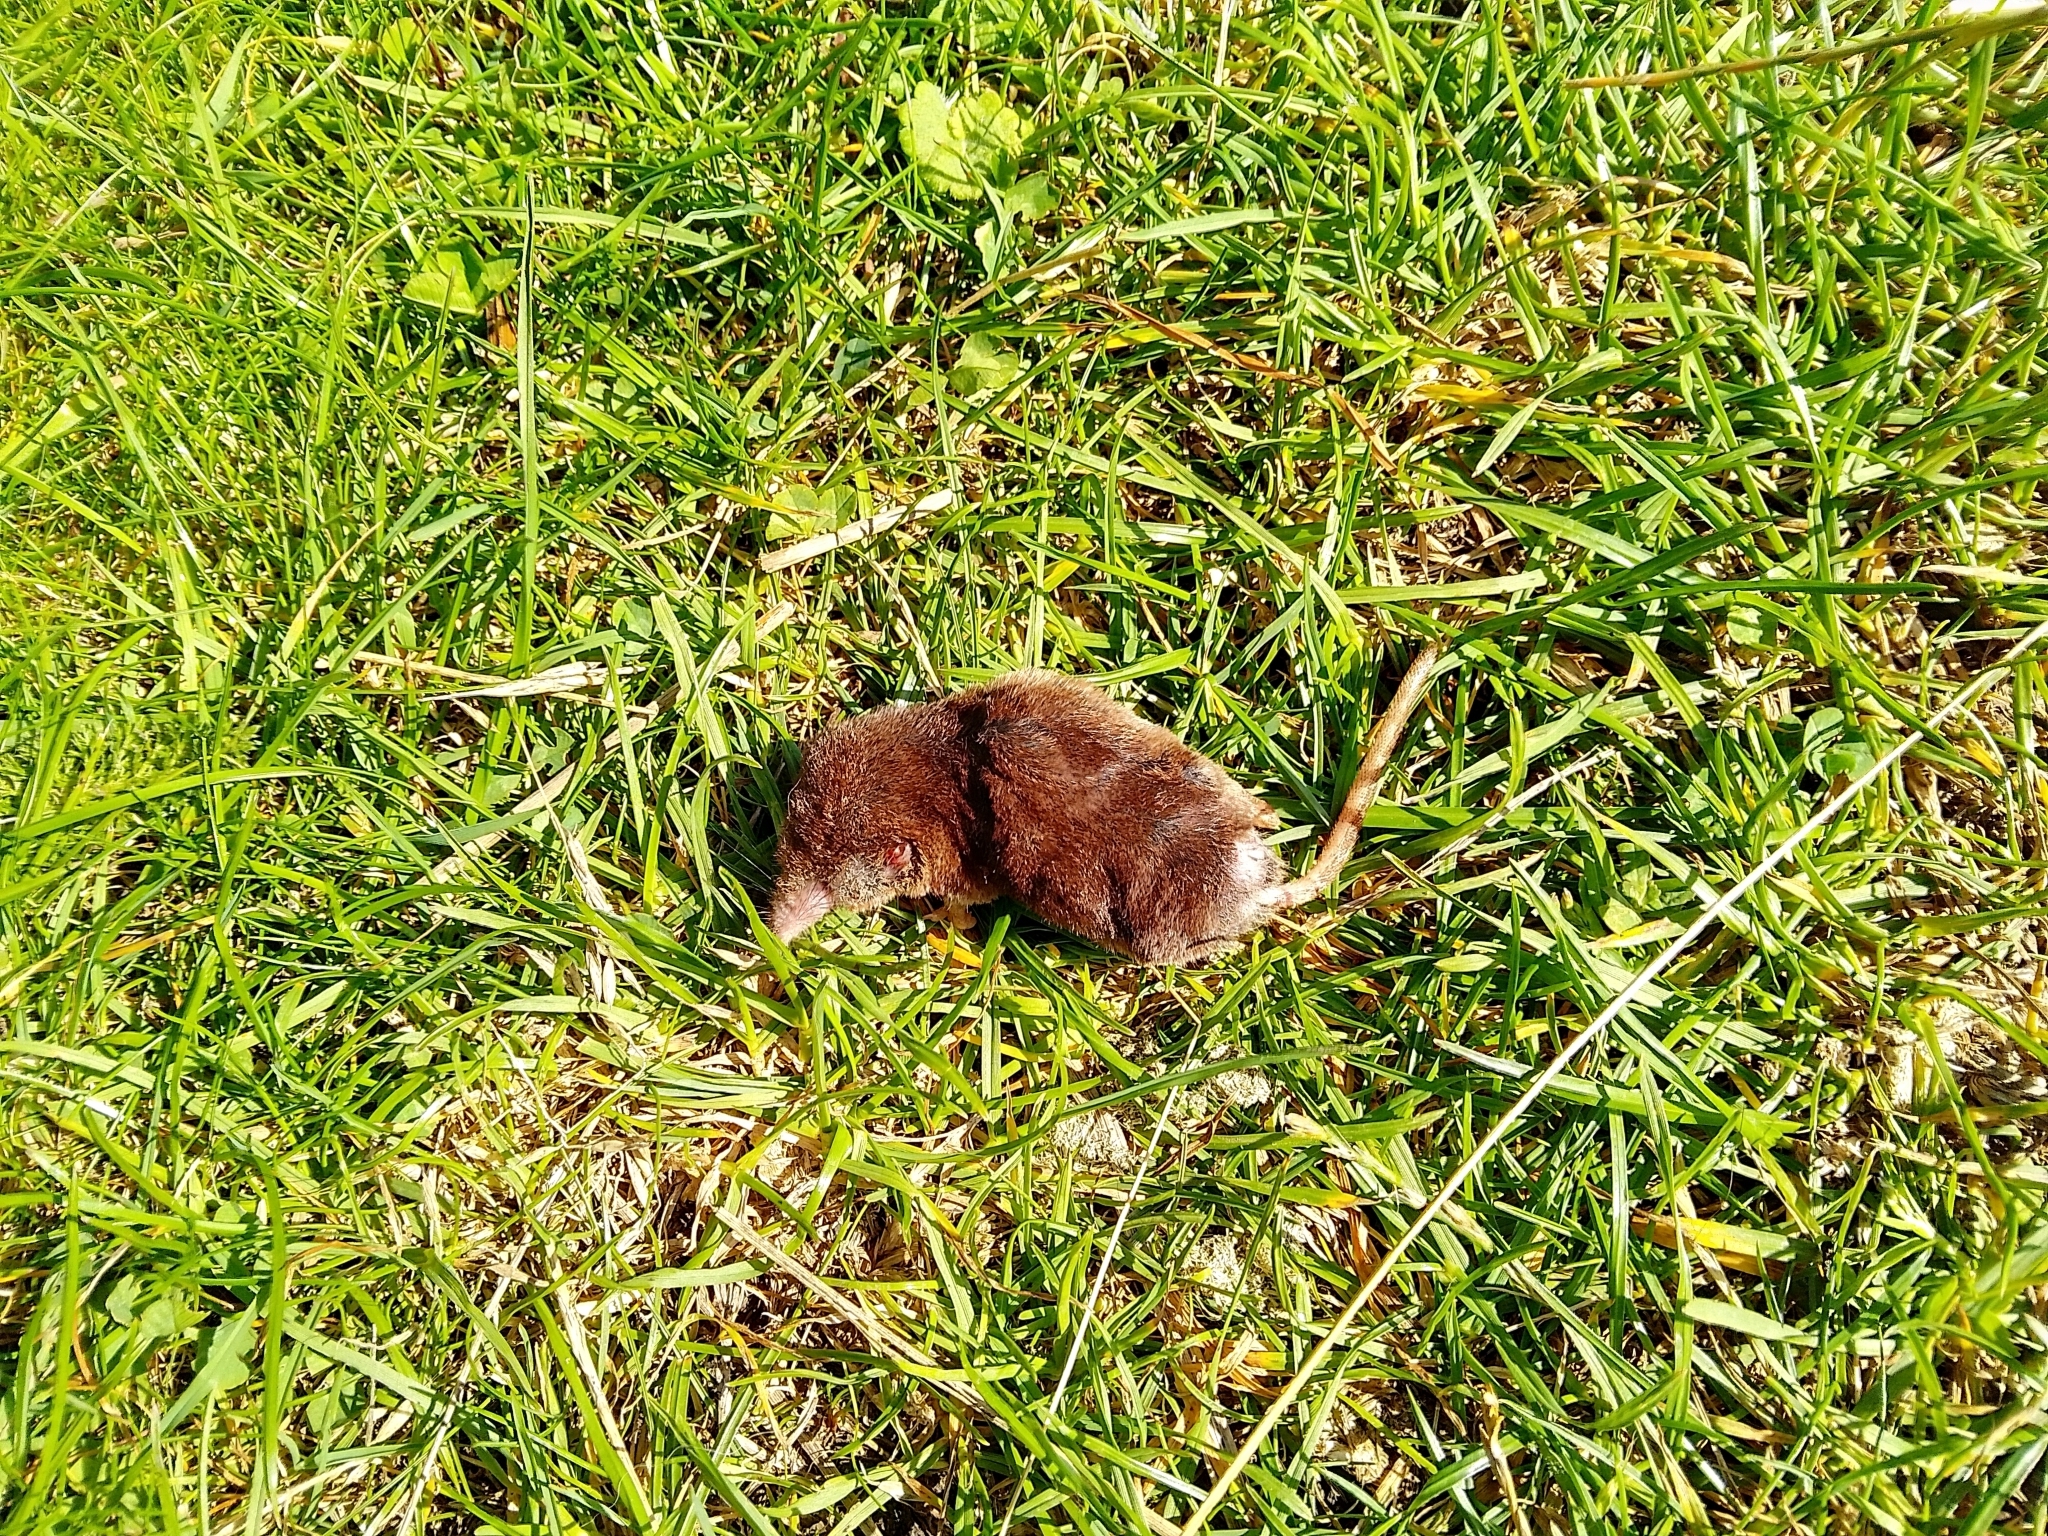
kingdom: Animalia
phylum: Chordata
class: Mammalia
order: Soricomorpha
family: Soricidae
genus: Sorex
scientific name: Sorex araneus
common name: Common shrew
